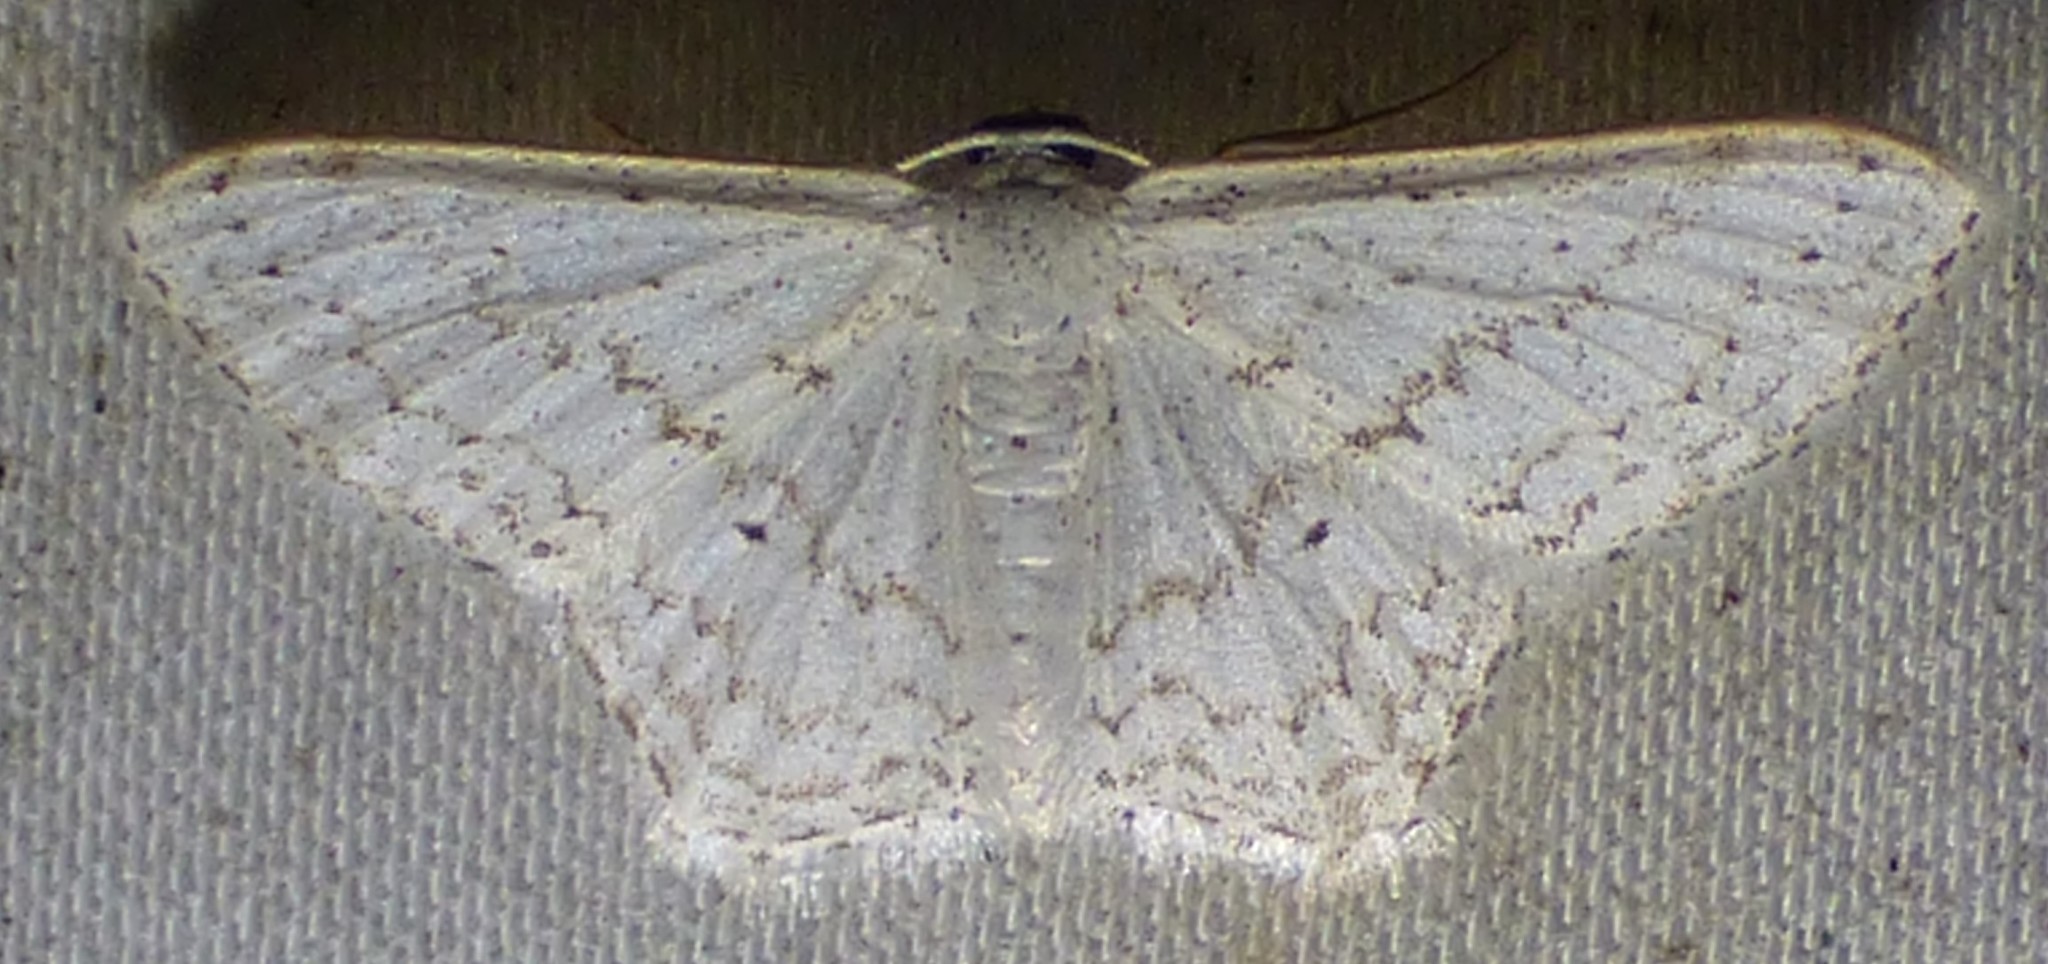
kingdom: Animalia
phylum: Arthropoda
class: Insecta
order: Lepidoptera
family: Geometridae
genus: Idaea
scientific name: Idaea tacturata
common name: Dot-lined wave
